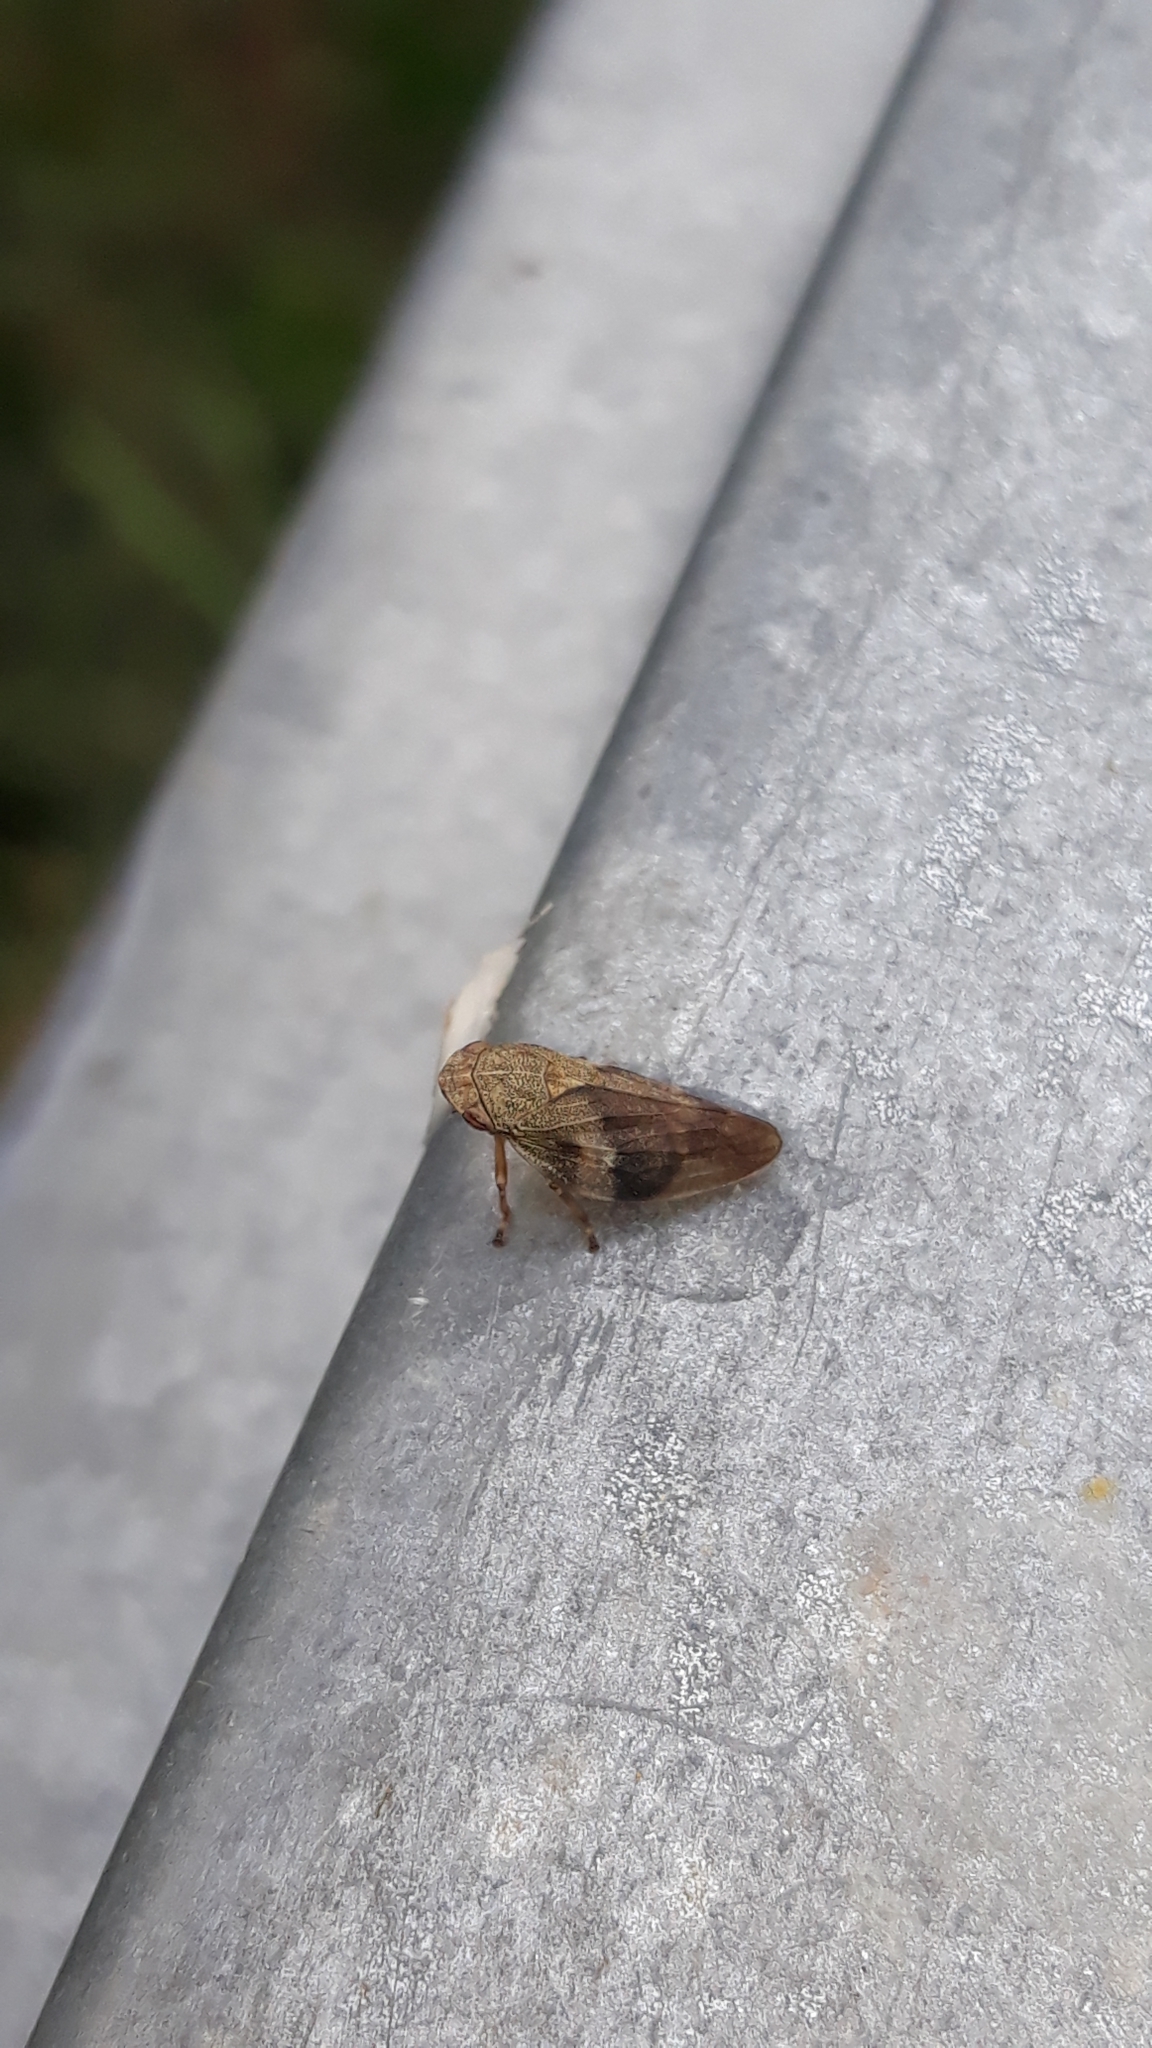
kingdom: Animalia
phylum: Arthropoda
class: Insecta
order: Hemiptera
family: Aphrophoridae
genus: Aphrophora
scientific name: Aphrophora alni
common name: European alder spittlebug
